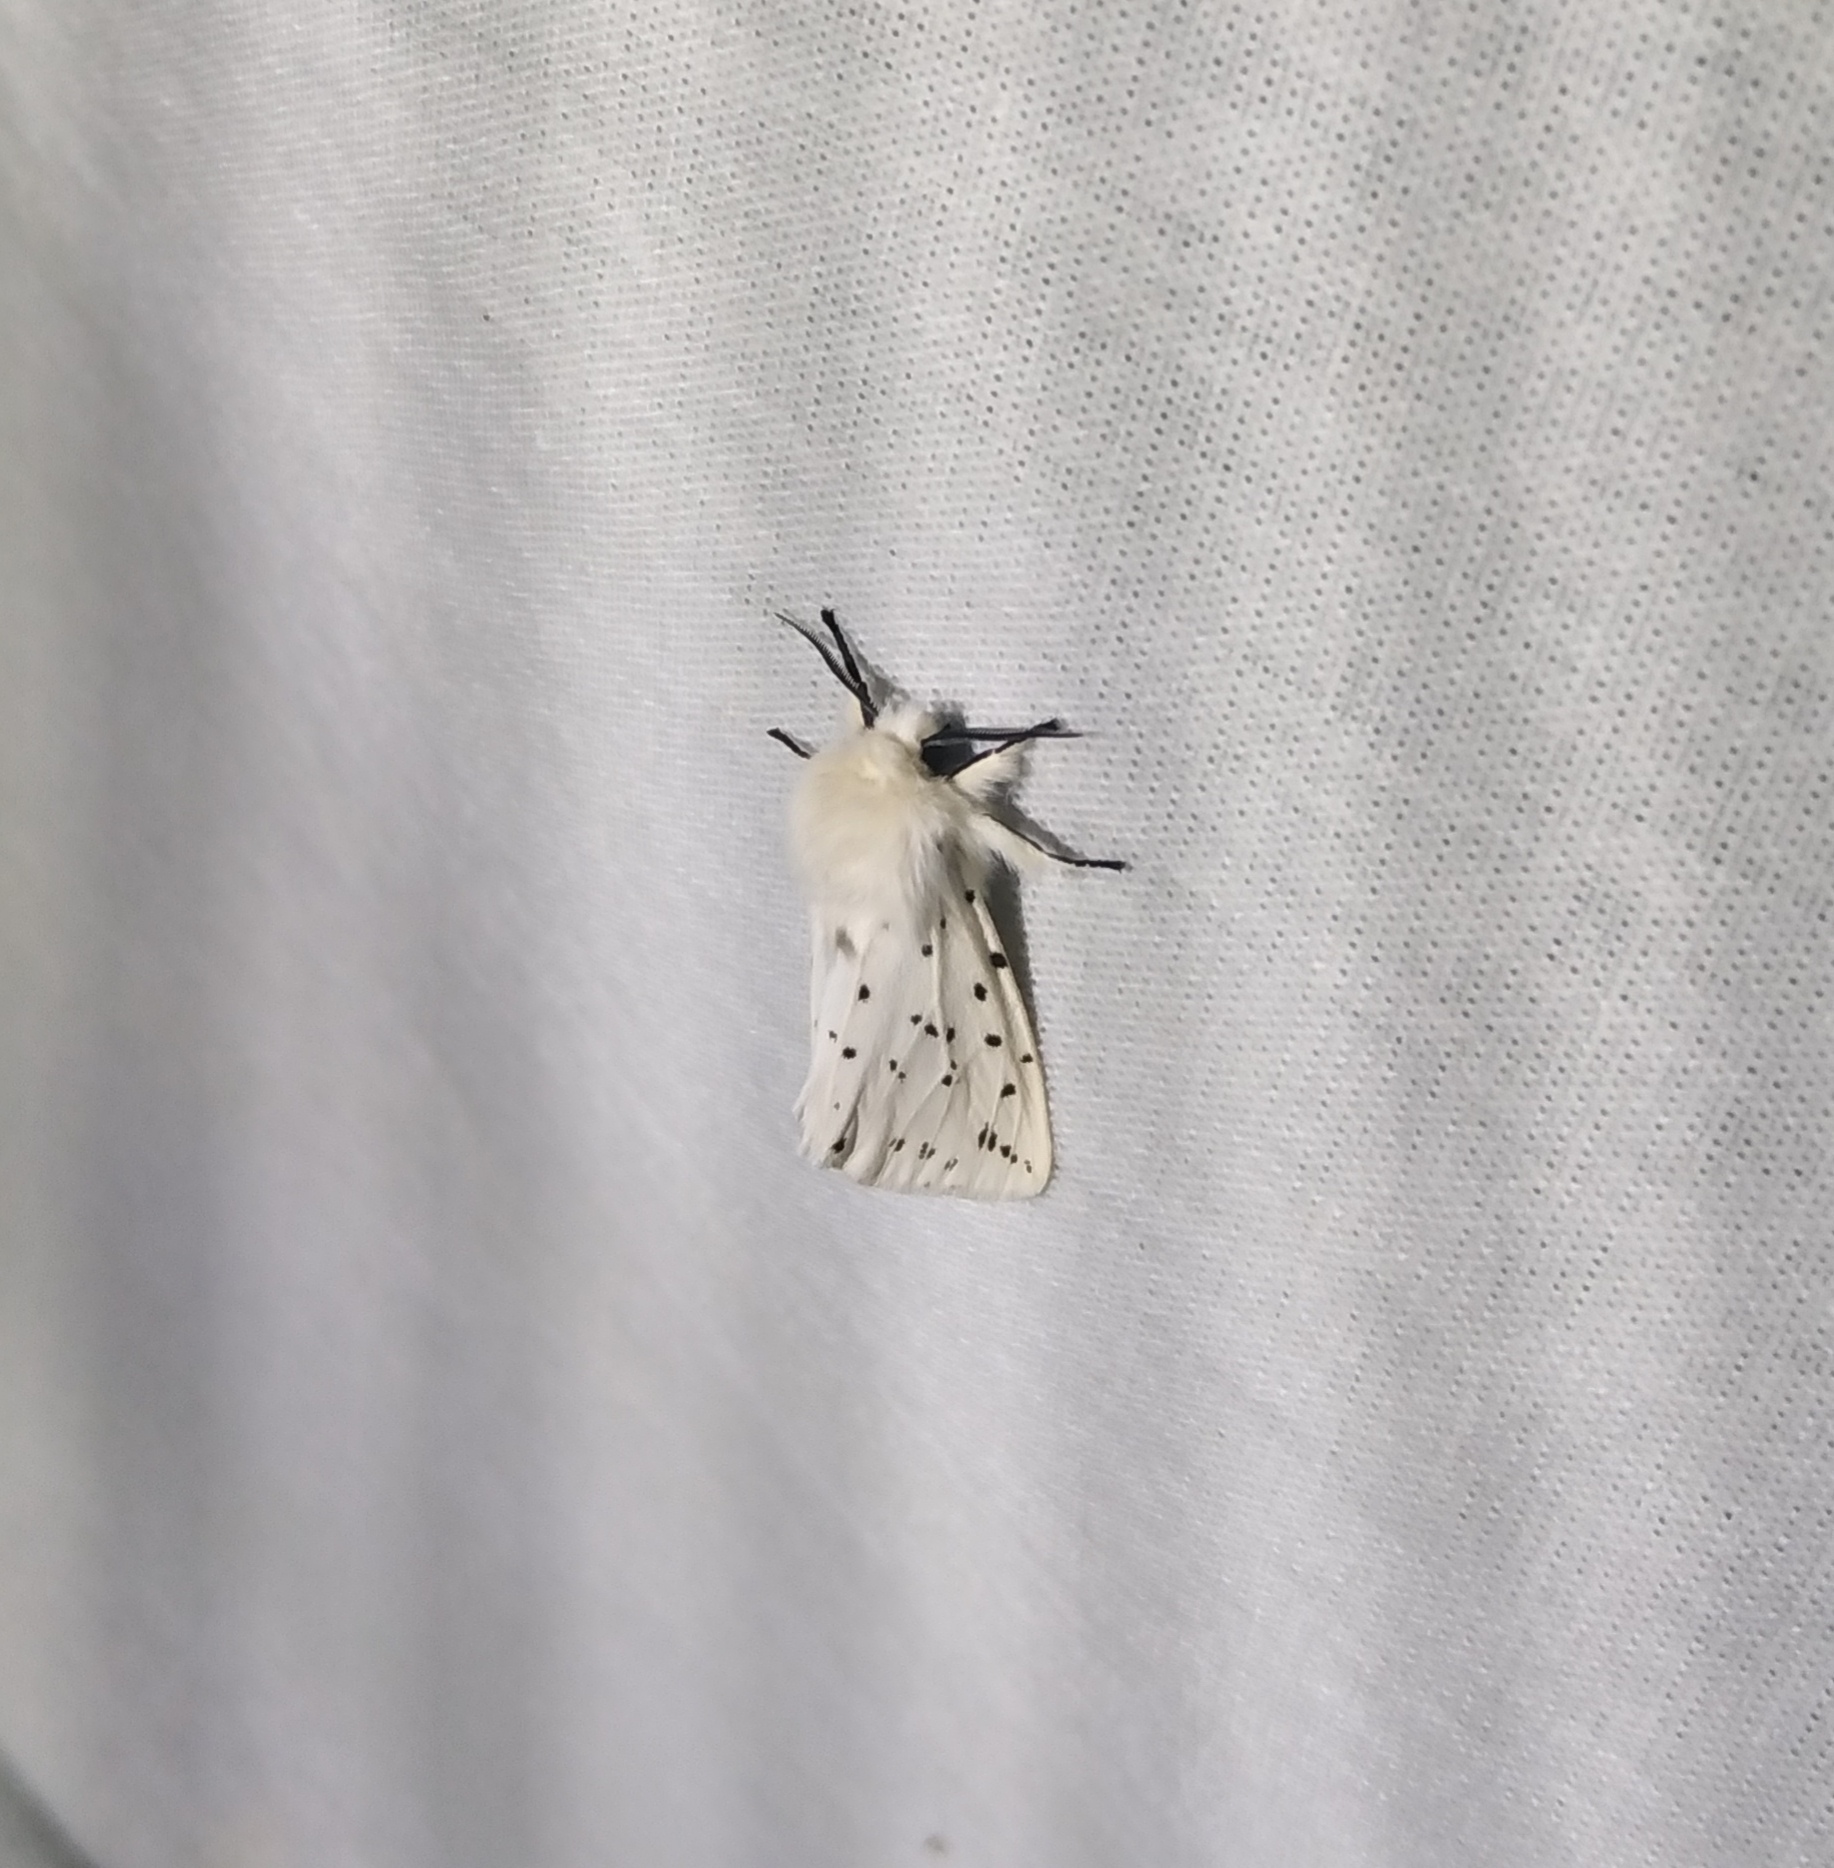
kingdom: Animalia
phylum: Arthropoda
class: Insecta
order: Lepidoptera
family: Erebidae
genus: Spilosoma
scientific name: Spilosoma lubricipeda
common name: White ermine
